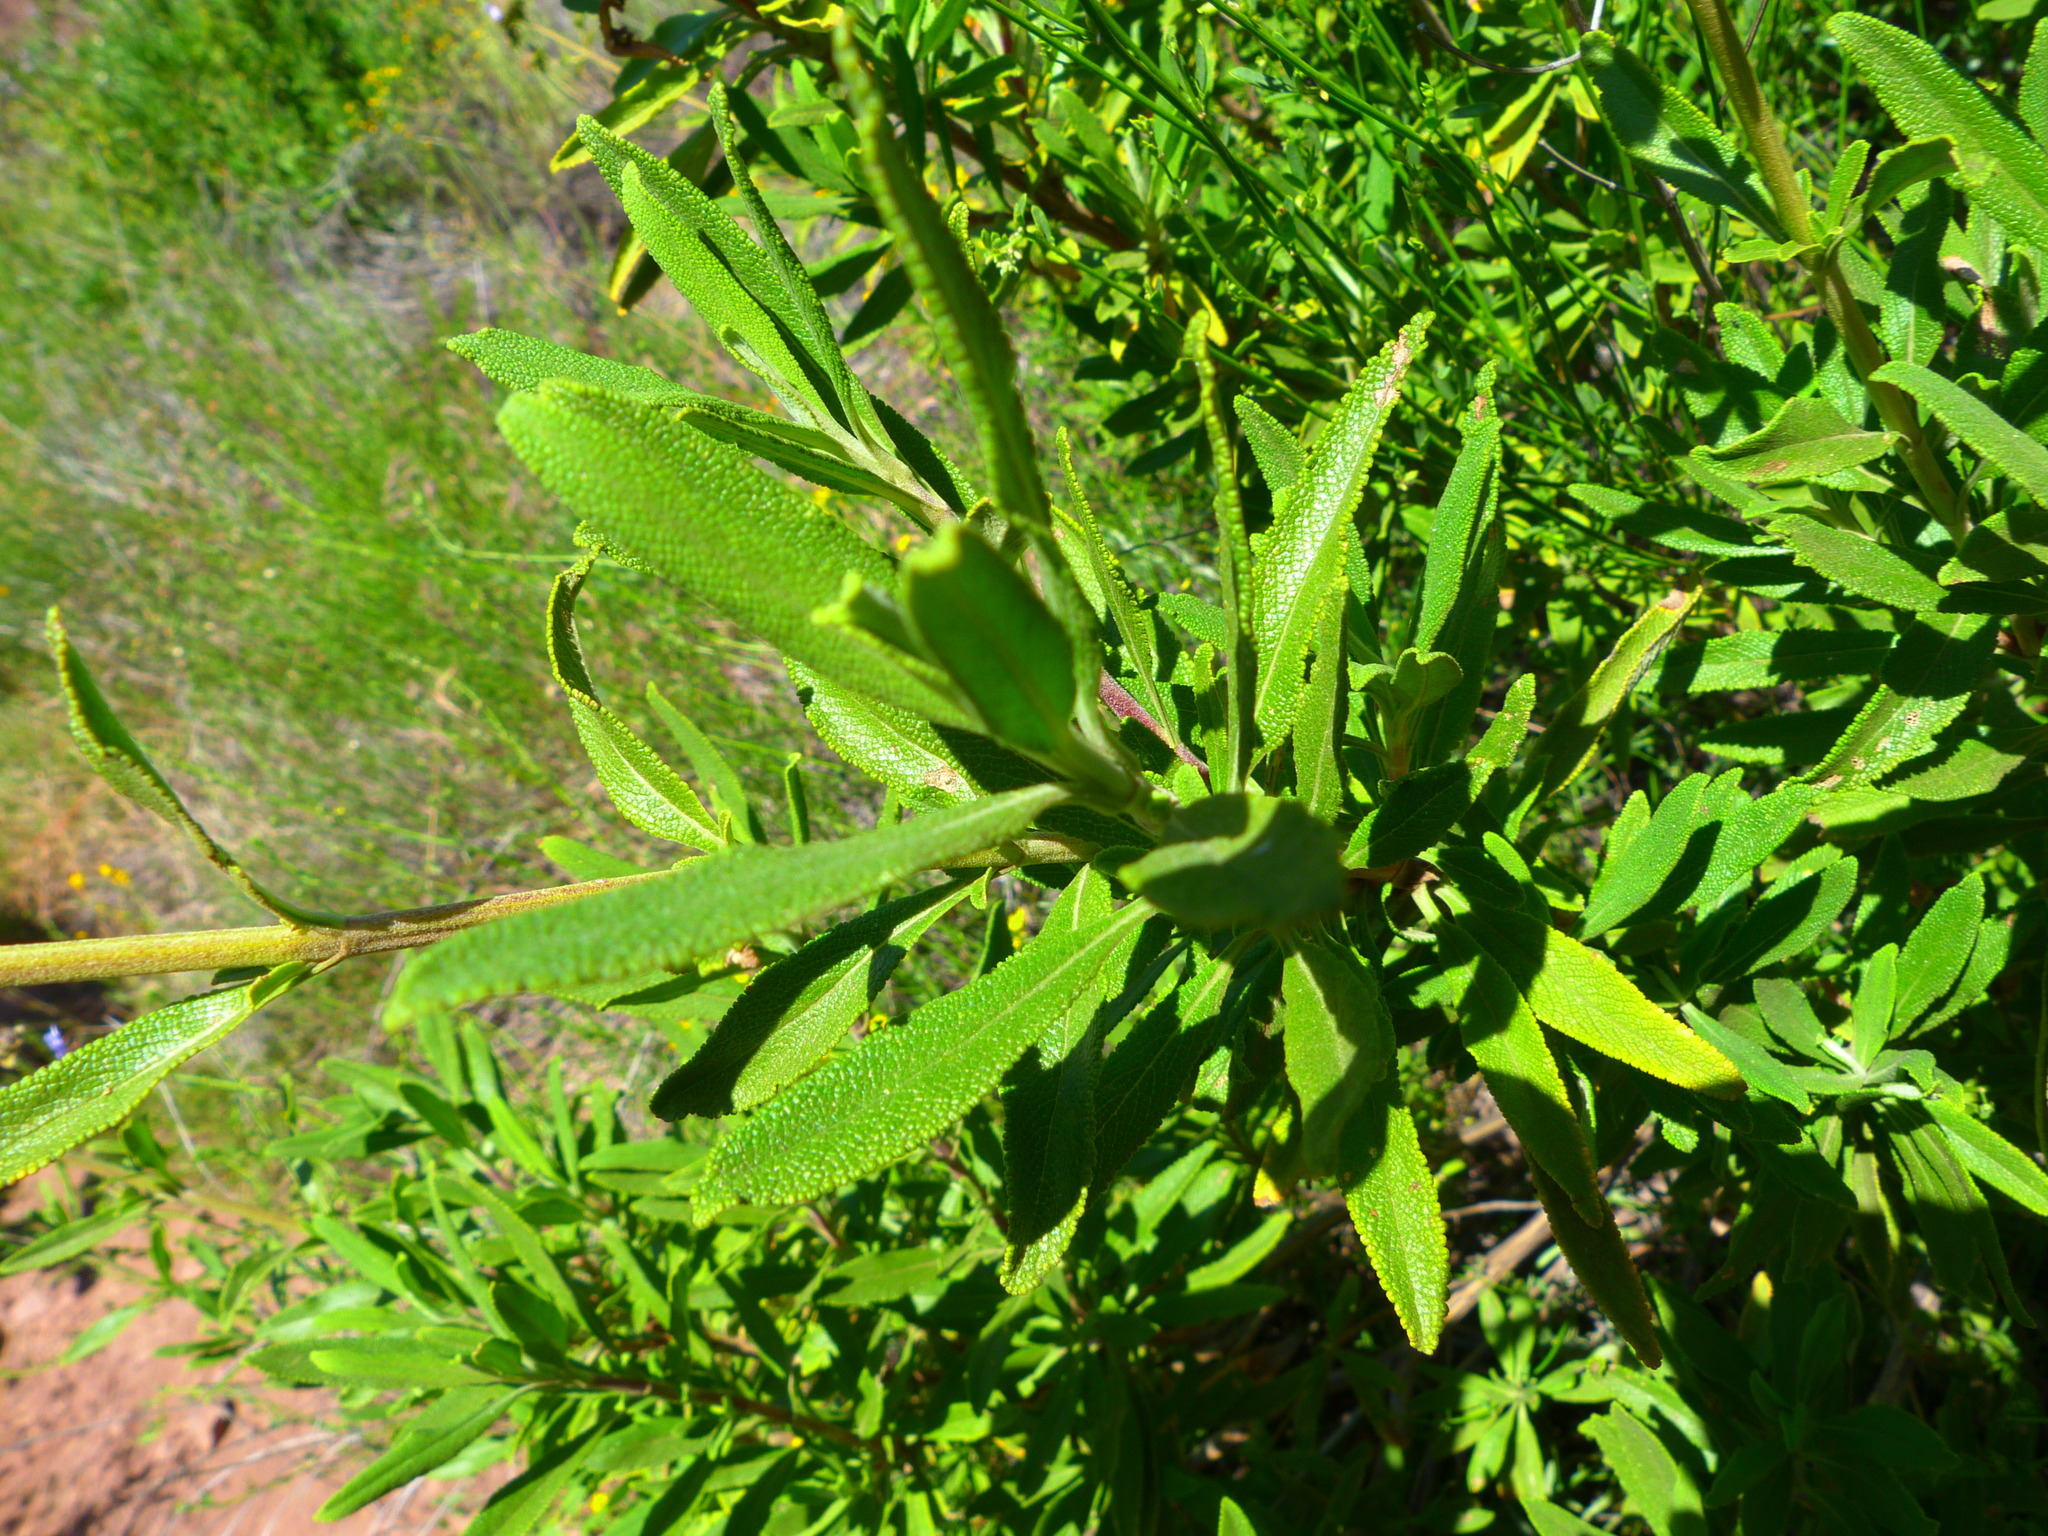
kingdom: Plantae
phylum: Tracheophyta
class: Magnoliopsida
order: Lamiales
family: Lamiaceae
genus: Salvia
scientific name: Salvia mellifera
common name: Black sage
